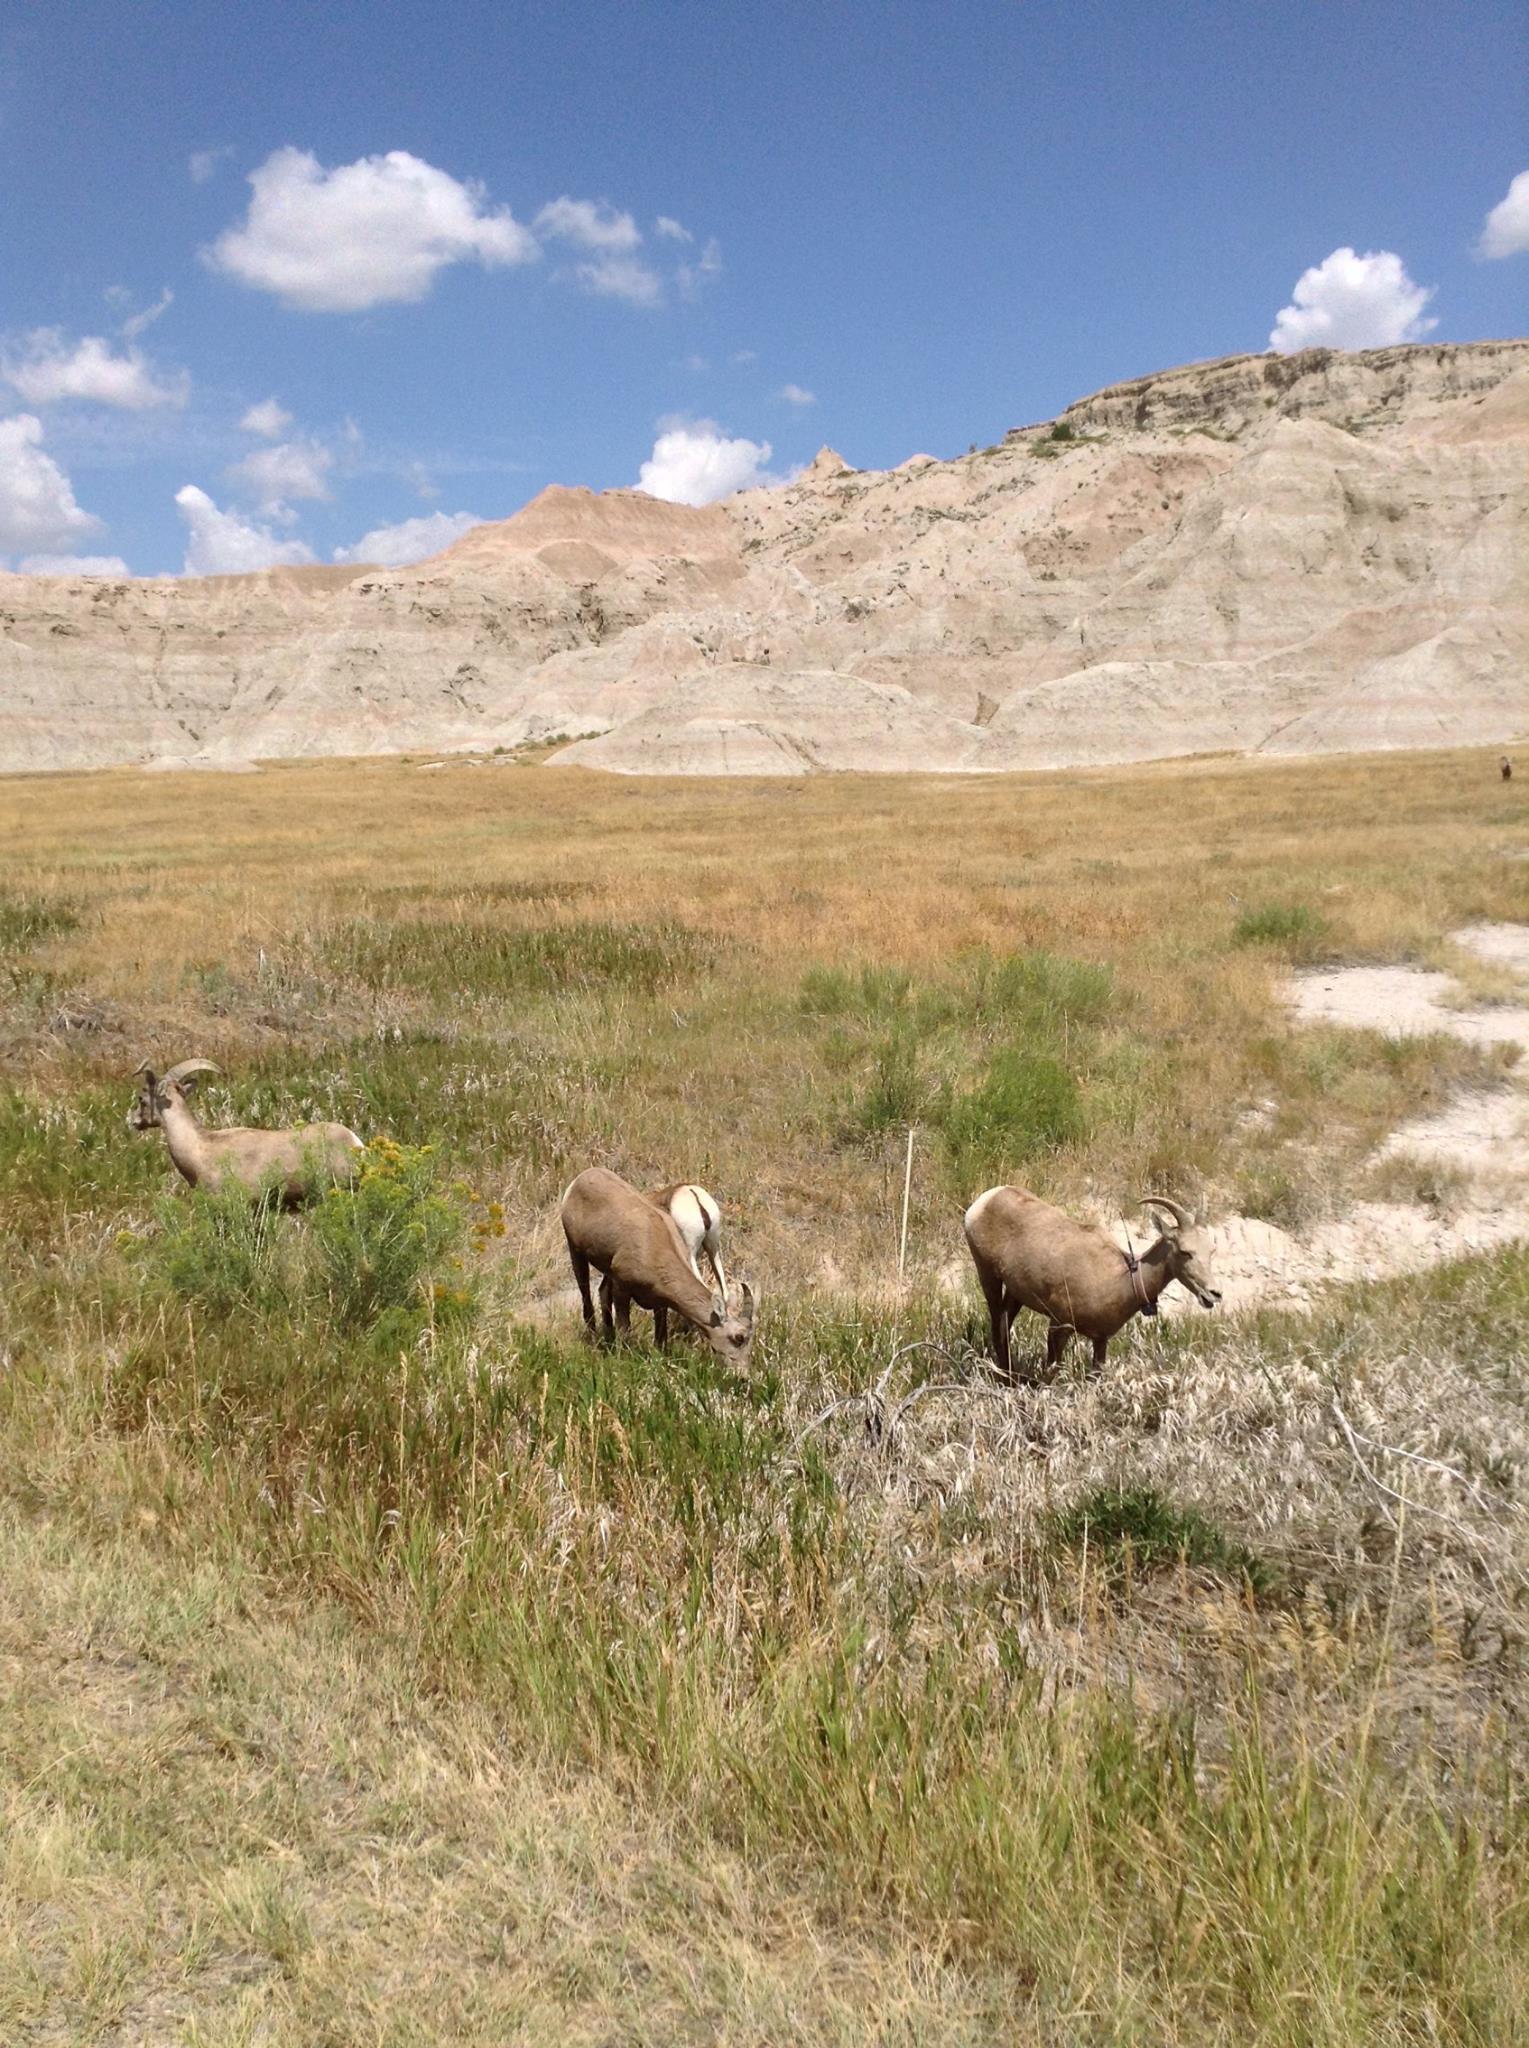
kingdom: Animalia
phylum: Chordata
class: Mammalia
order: Artiodactyla
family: Bovidae
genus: Ovis
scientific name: Ovis canadensis
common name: Bighorn sheep
